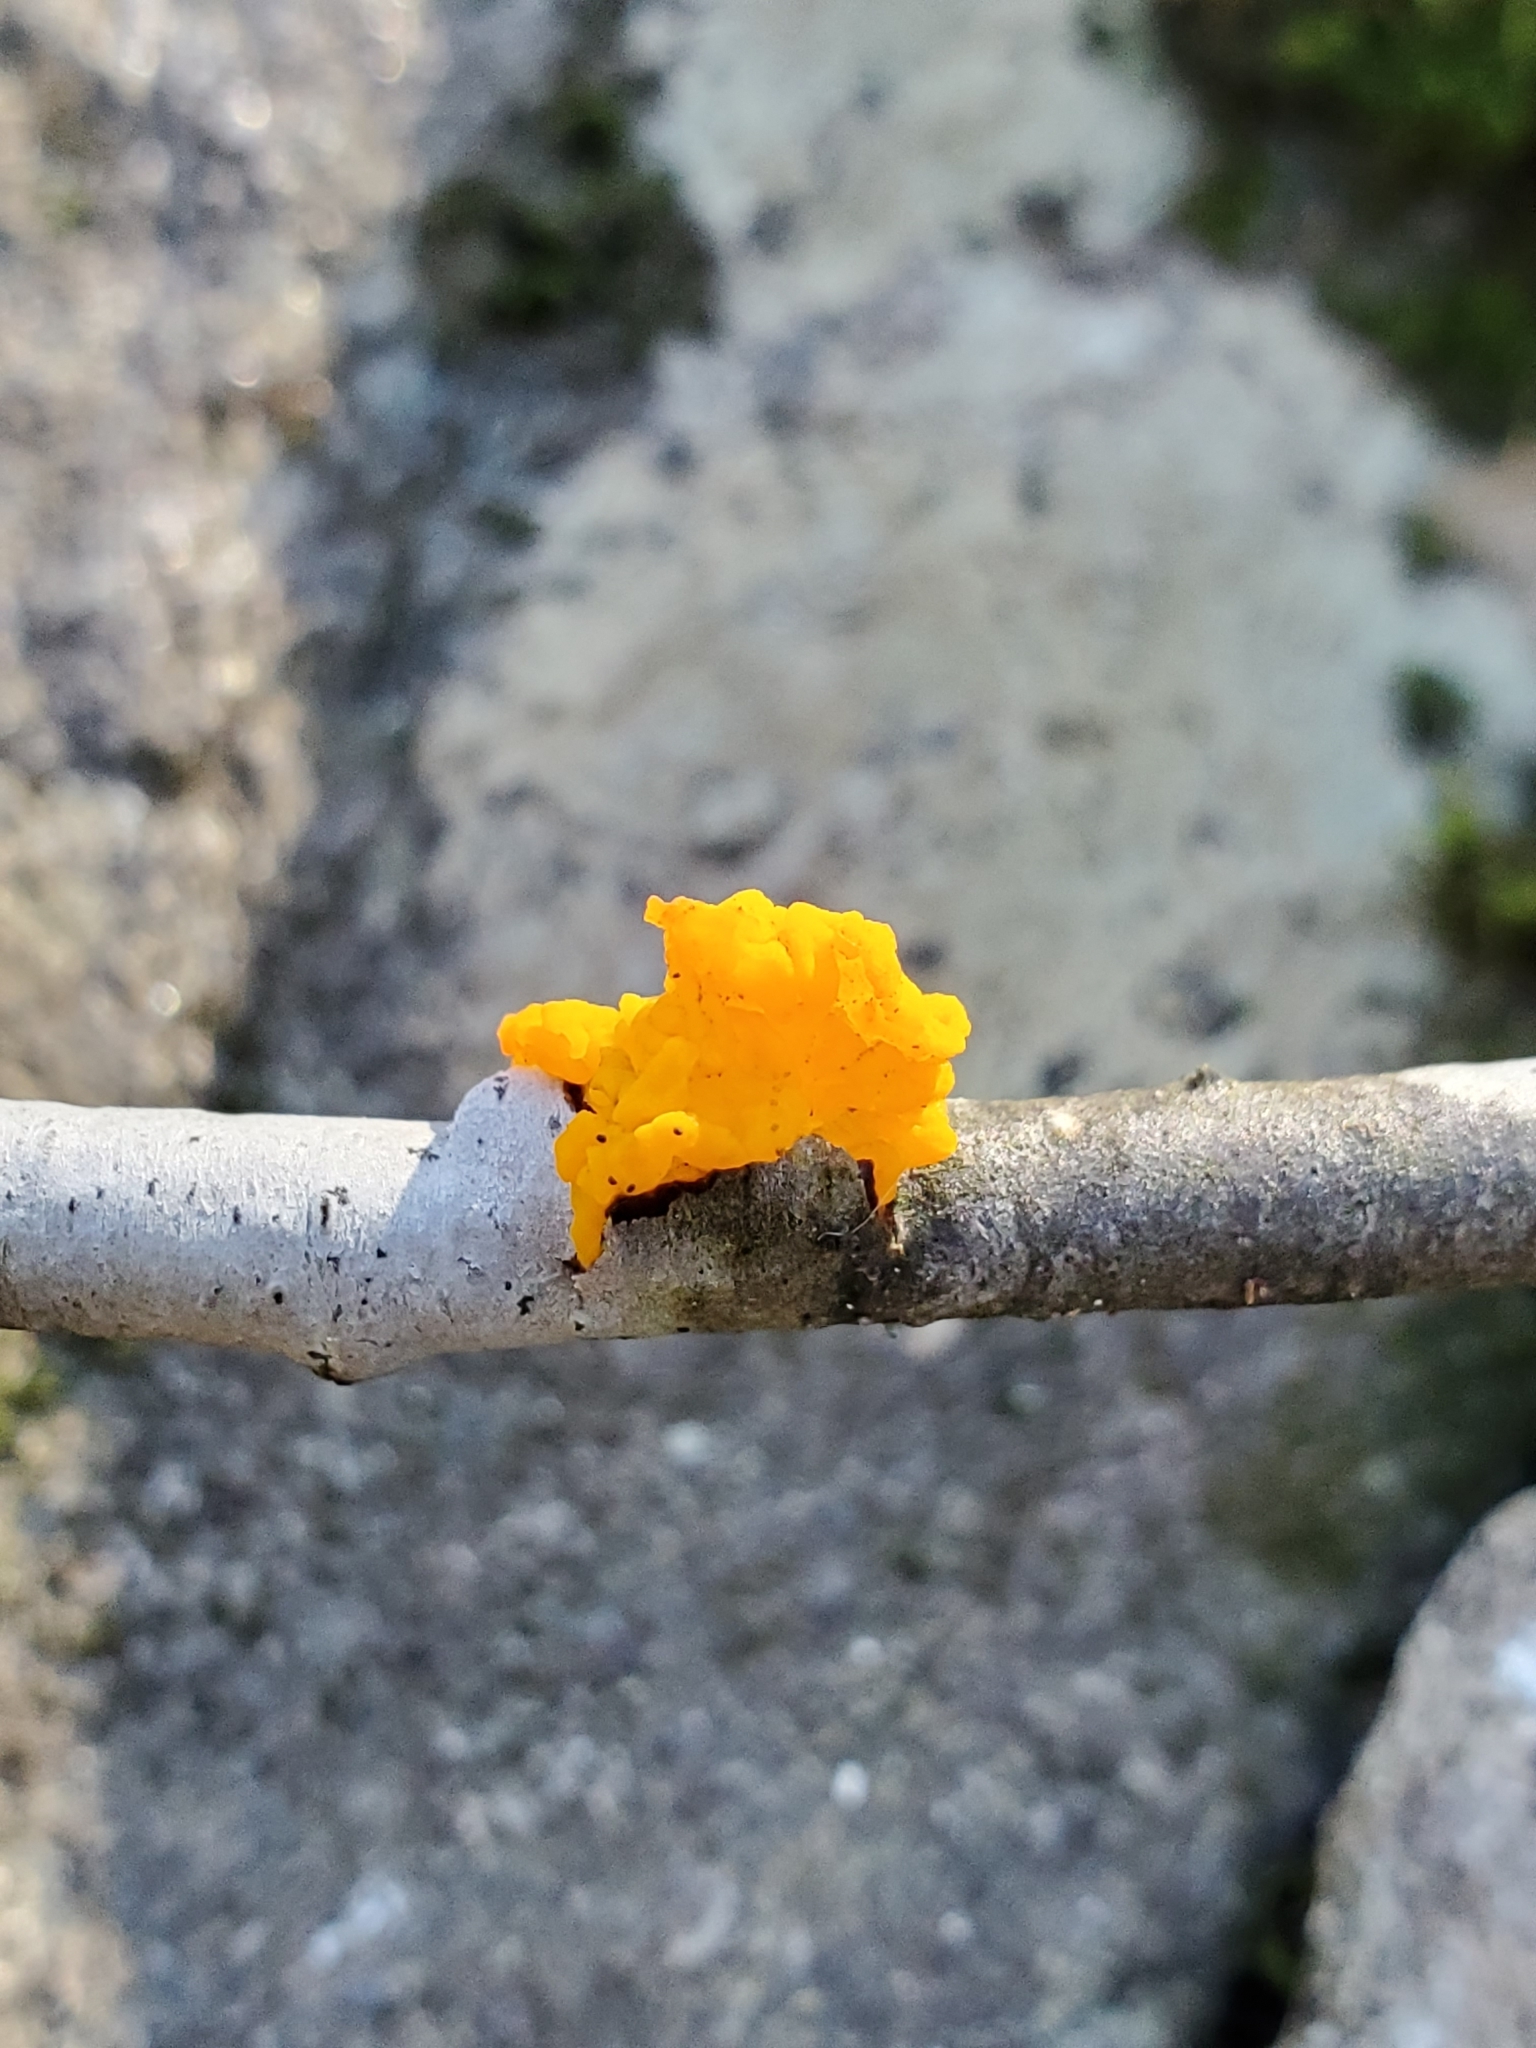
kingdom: Fungi
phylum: Basidiomycota
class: Tremellomycetes
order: Tremellales
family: Tremellaceae
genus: Tremella
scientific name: Tremella mesenterica
